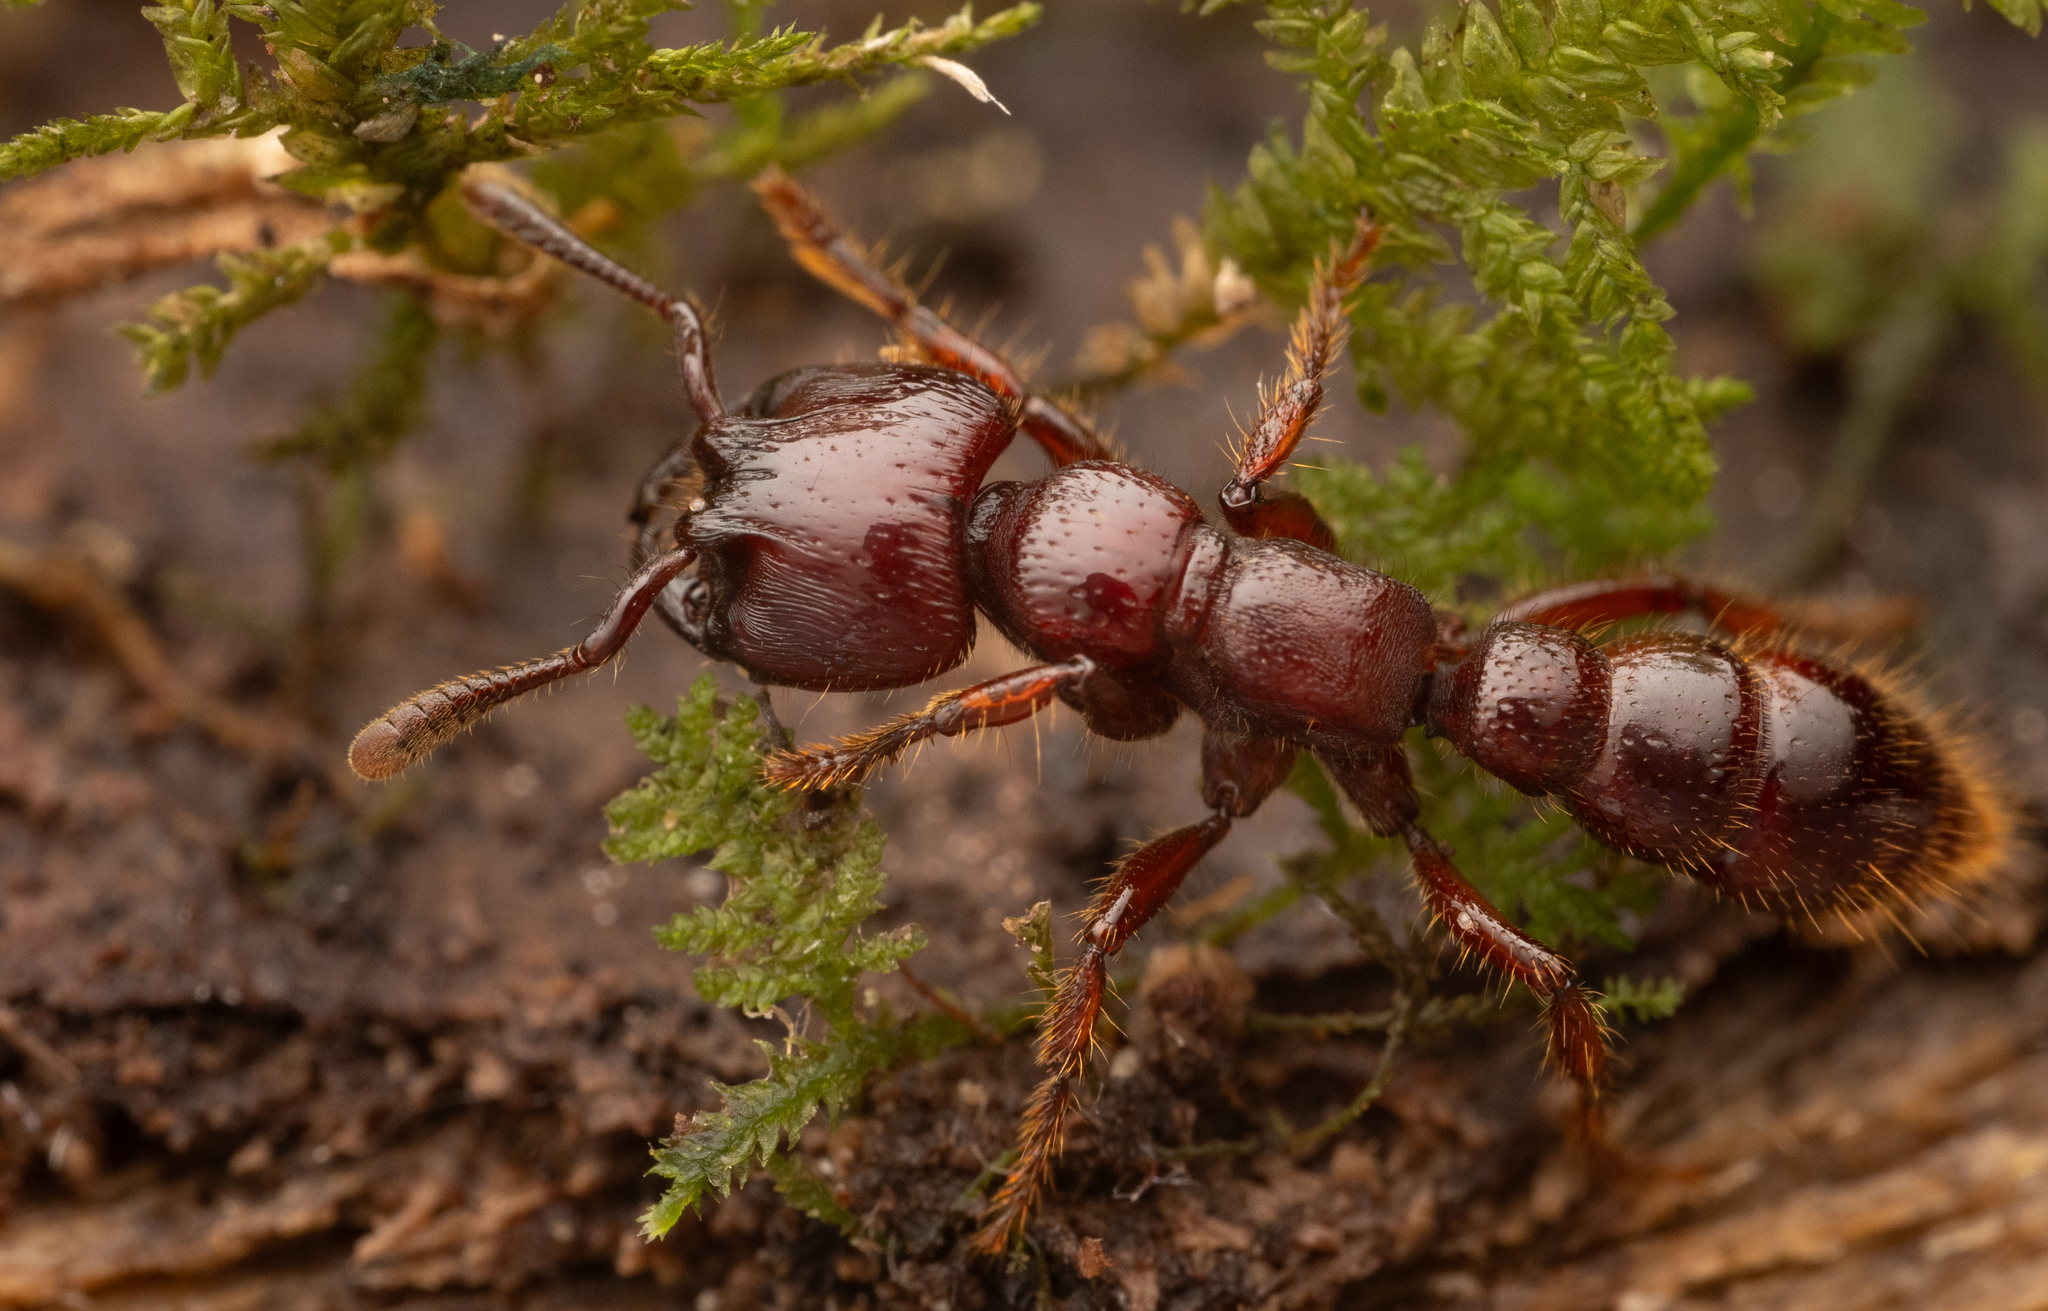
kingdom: Animalia
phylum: Arthropoda
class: Insecta
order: Hymenoptera
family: Formicidae
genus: Myopopone
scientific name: Myopopone castanea
